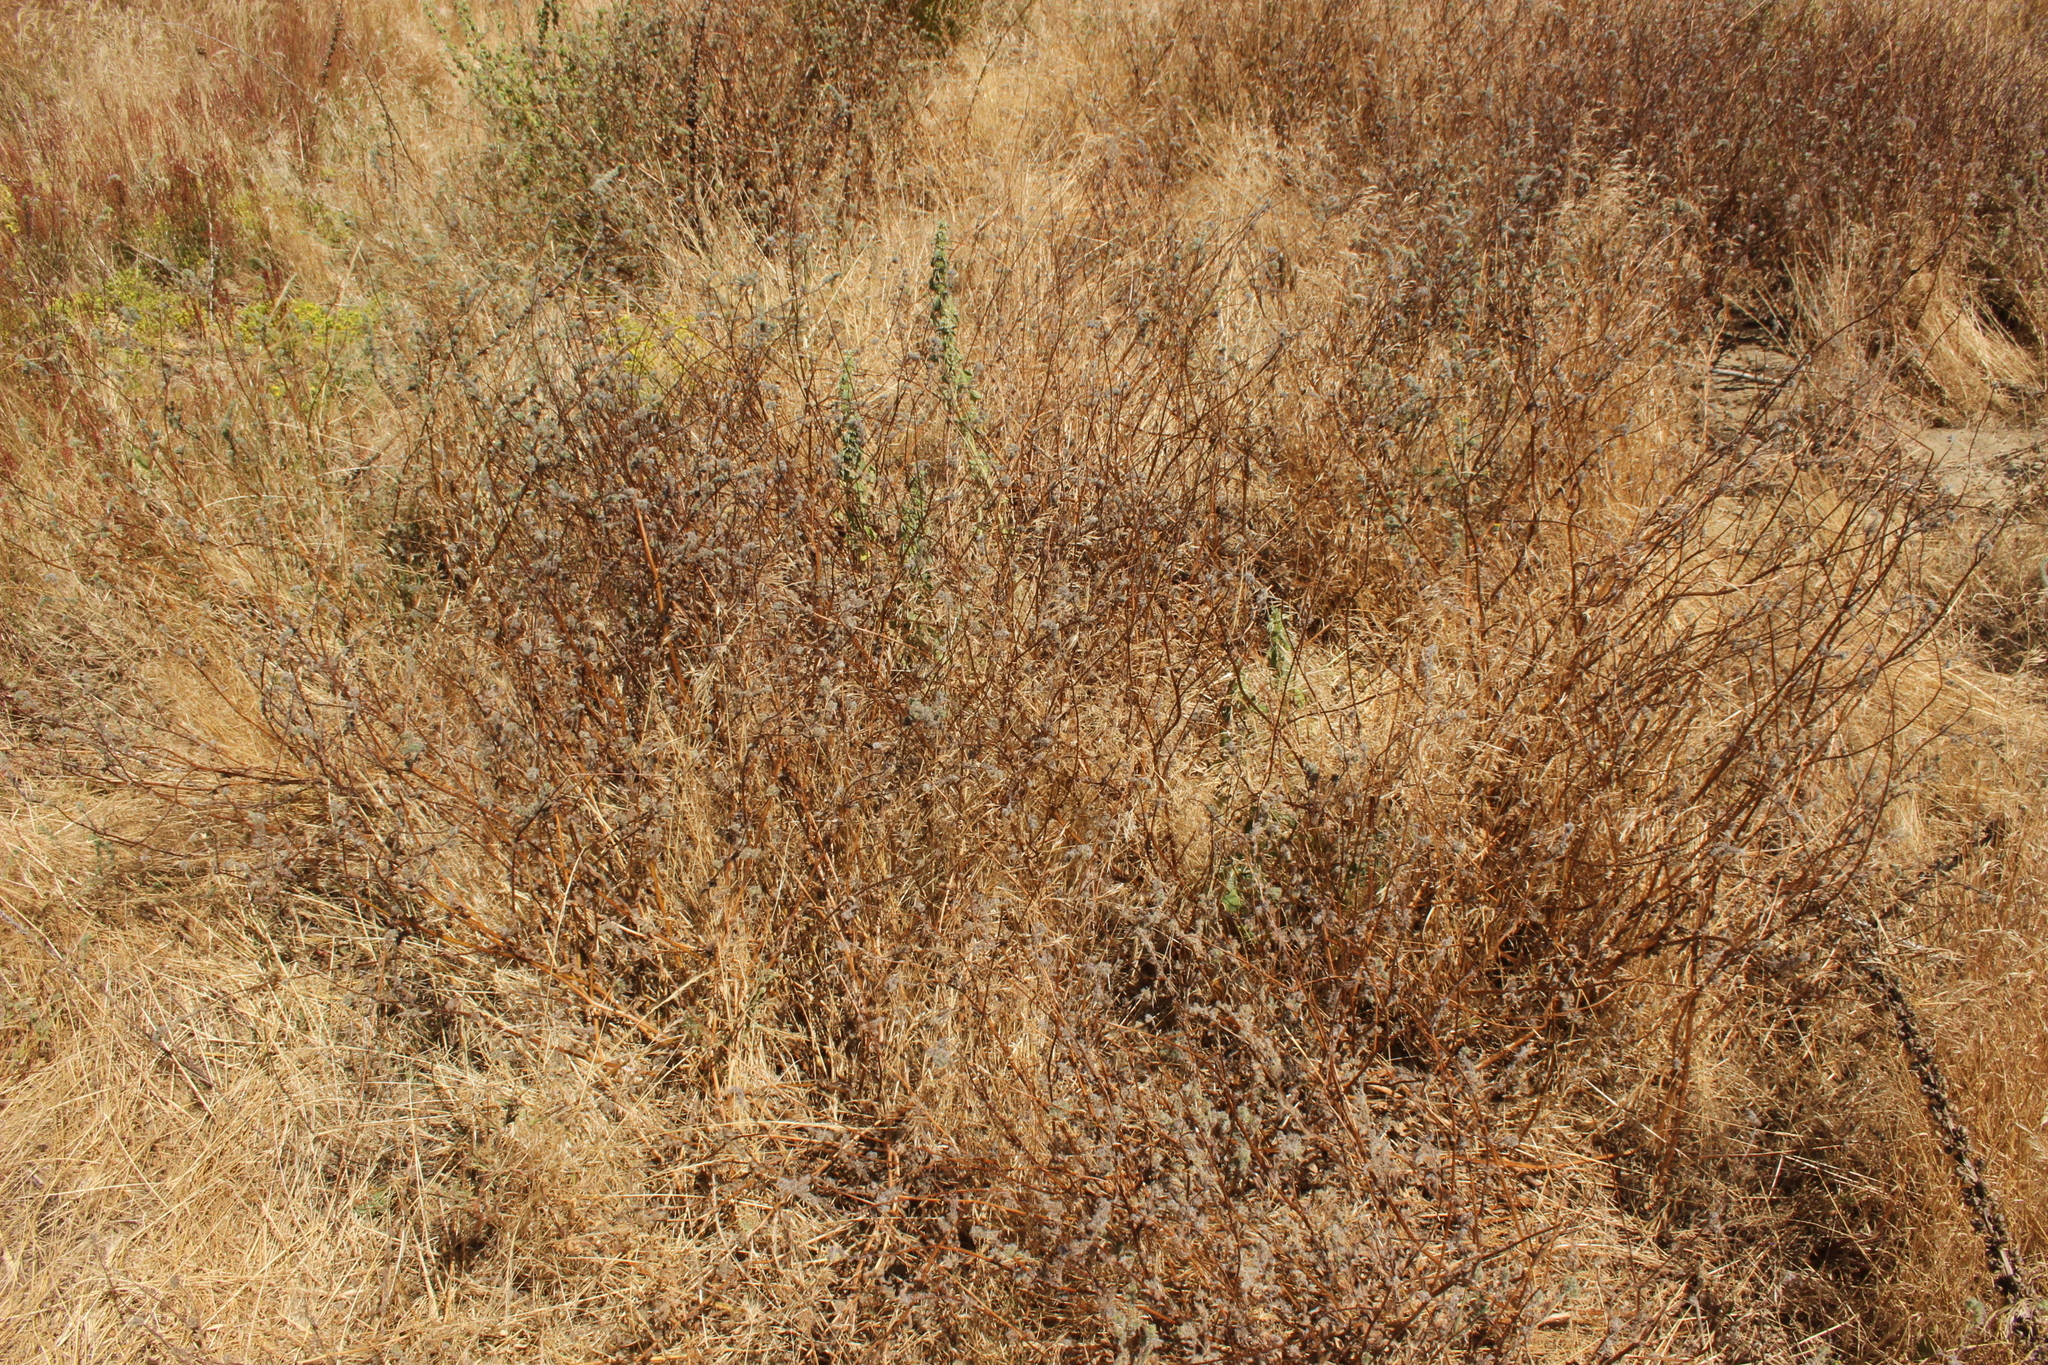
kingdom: Plantae
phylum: Tracheophyta
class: Magnoliopsida
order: Boraginales
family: Boraginaceae
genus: Amsinckia
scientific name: Amsinckia calycina
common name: Hairy fiddleneck
